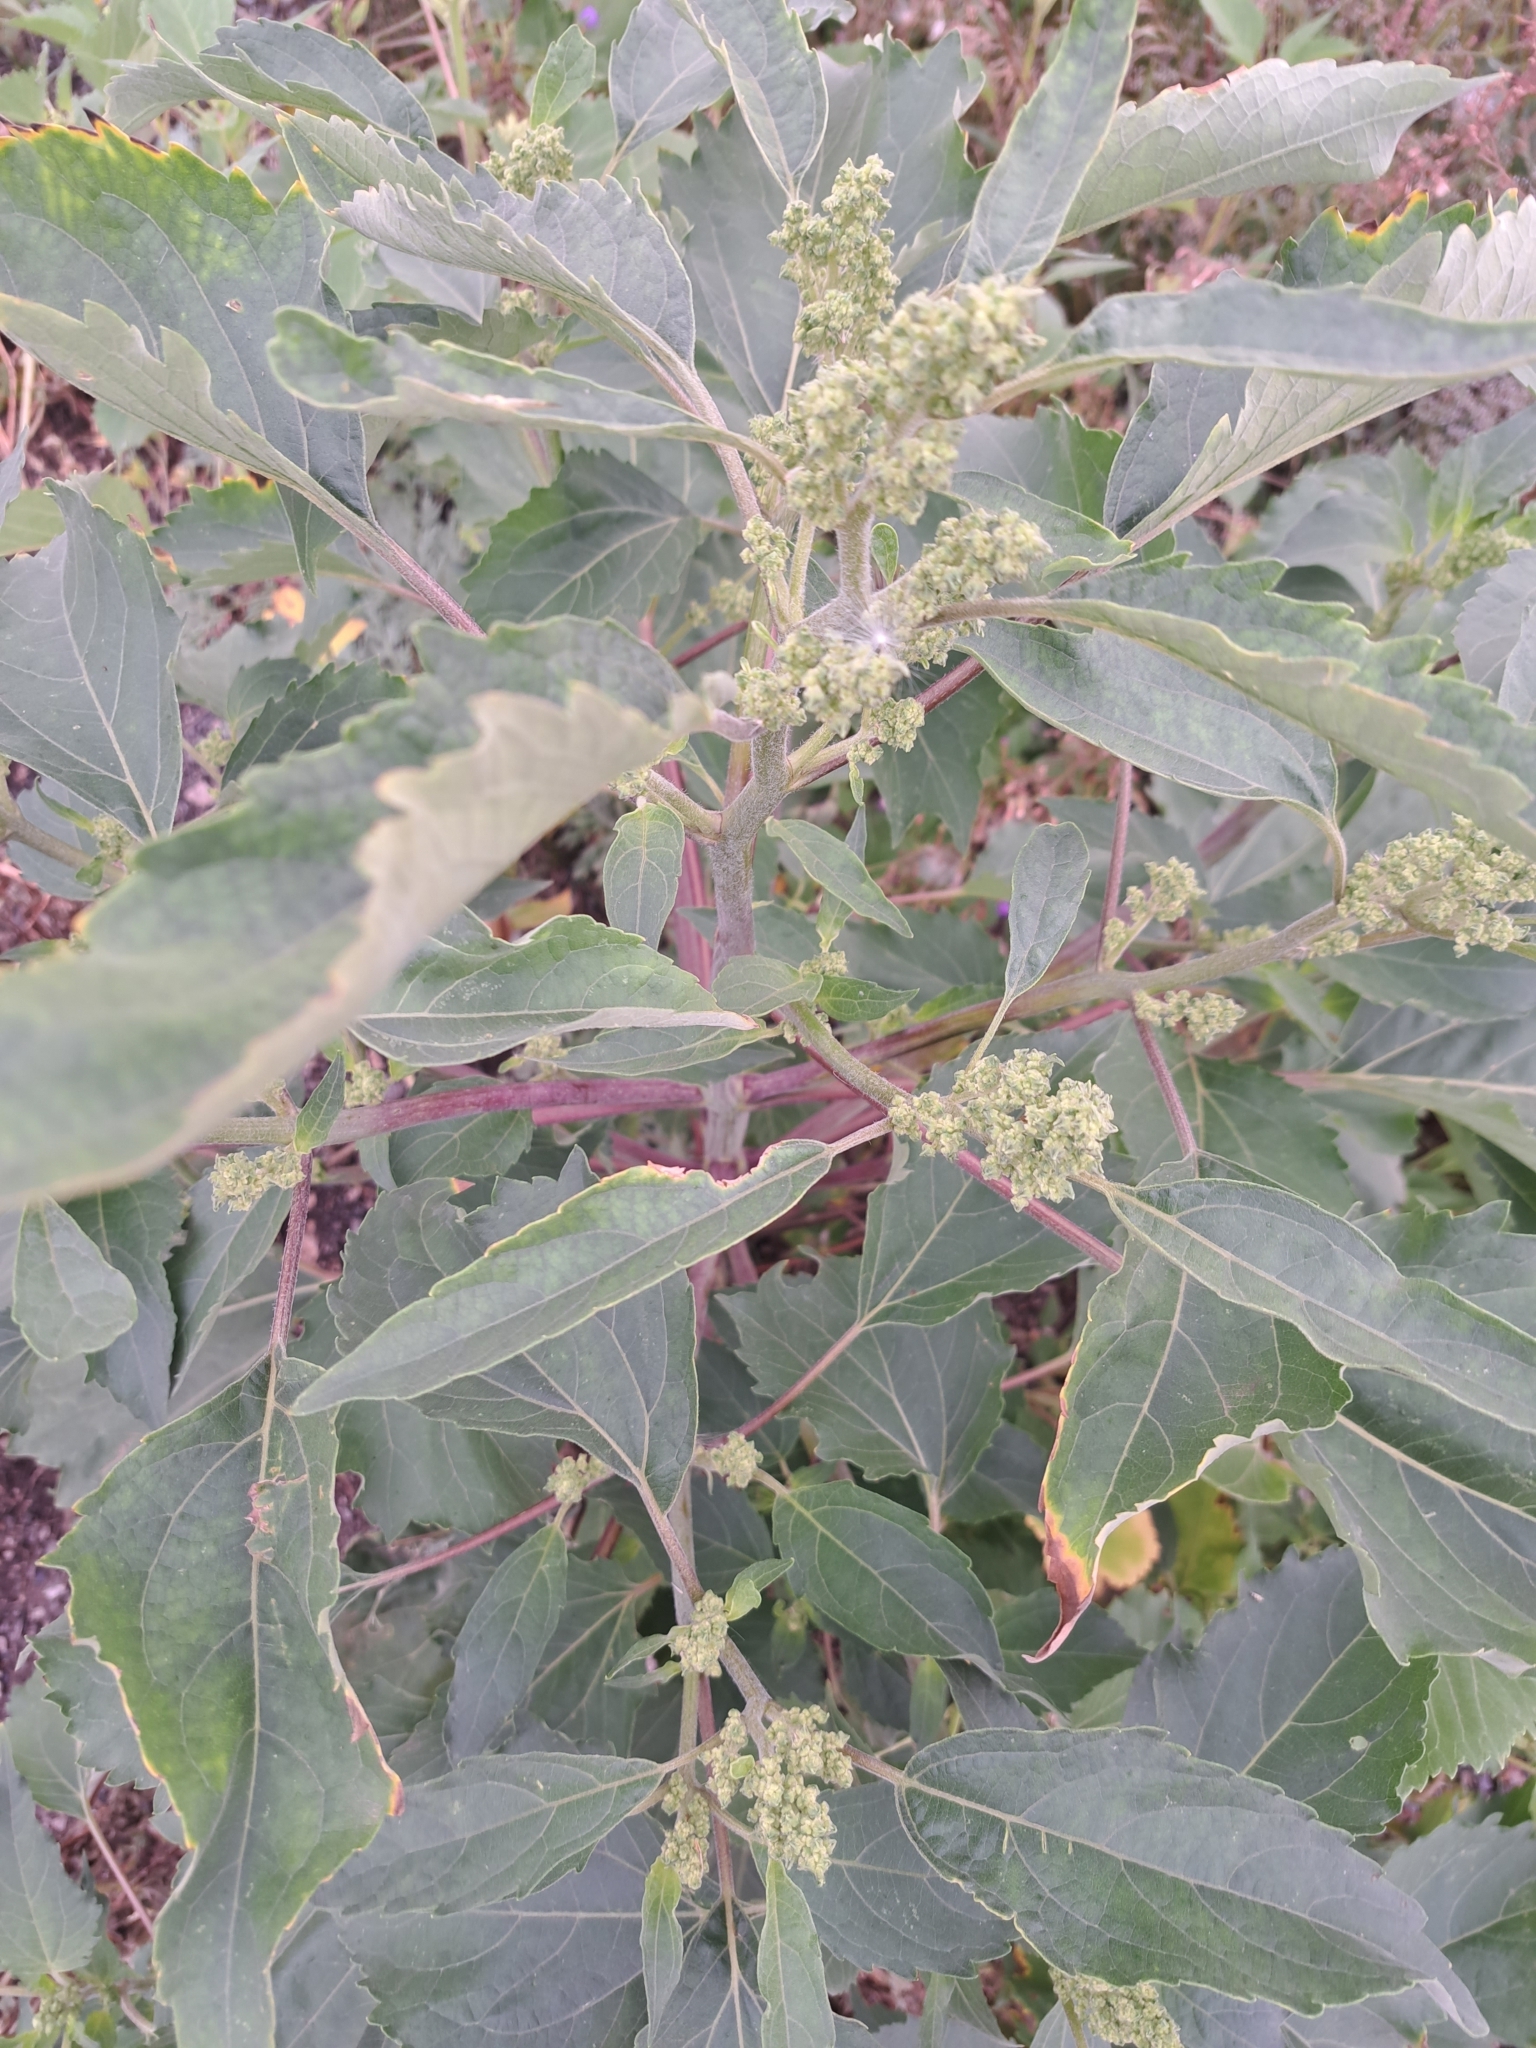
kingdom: Plantae
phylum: Tracheophyta
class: Magnoliopsida
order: Asterales
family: Asteraceae
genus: Cyclachaena
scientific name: Cyclachaena xanthiifolia
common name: Giant sumpweed
